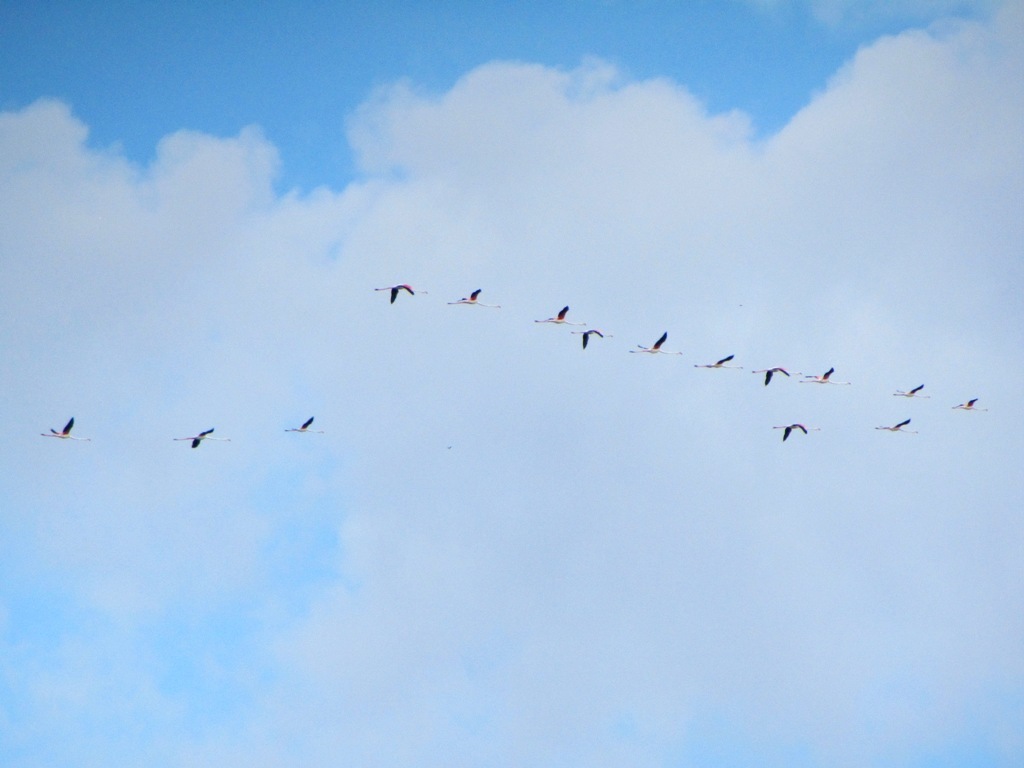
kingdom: Animalia
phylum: Chordata
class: Aves
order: Phoenicopteriformes
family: Phoenicopteridae
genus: Phoenicopterus
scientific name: Phoenicopterus roseus
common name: Greater flamingo
